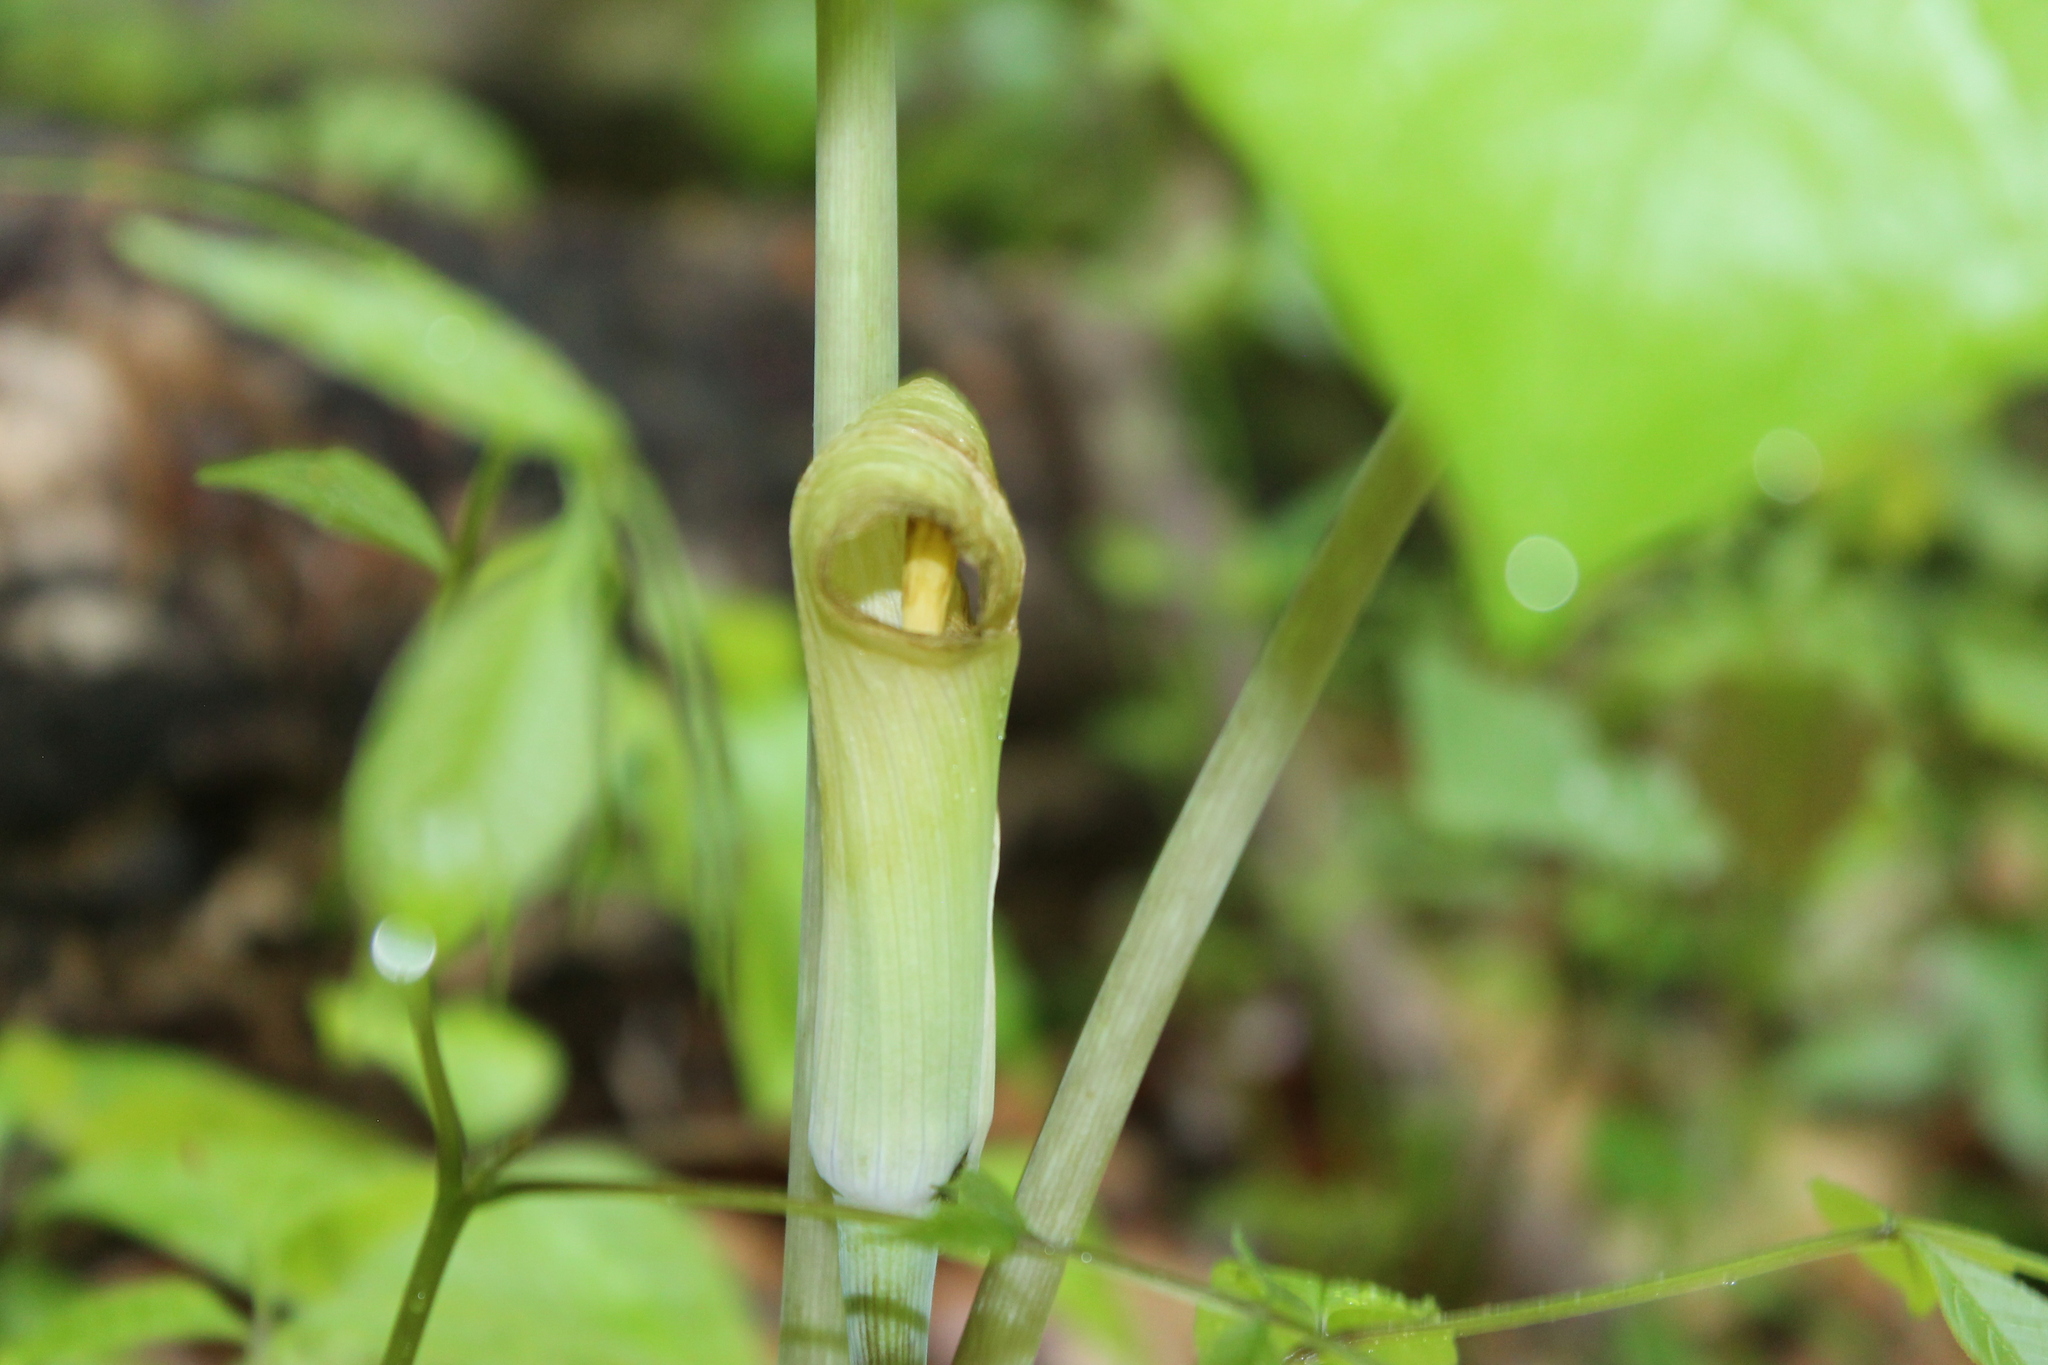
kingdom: Plantae
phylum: Tracheophyta
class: Liliopsida
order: Alismatales
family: Araceae
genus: Arisaema
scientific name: Arisaema triphyllum
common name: Jack-in-the-pulpit
